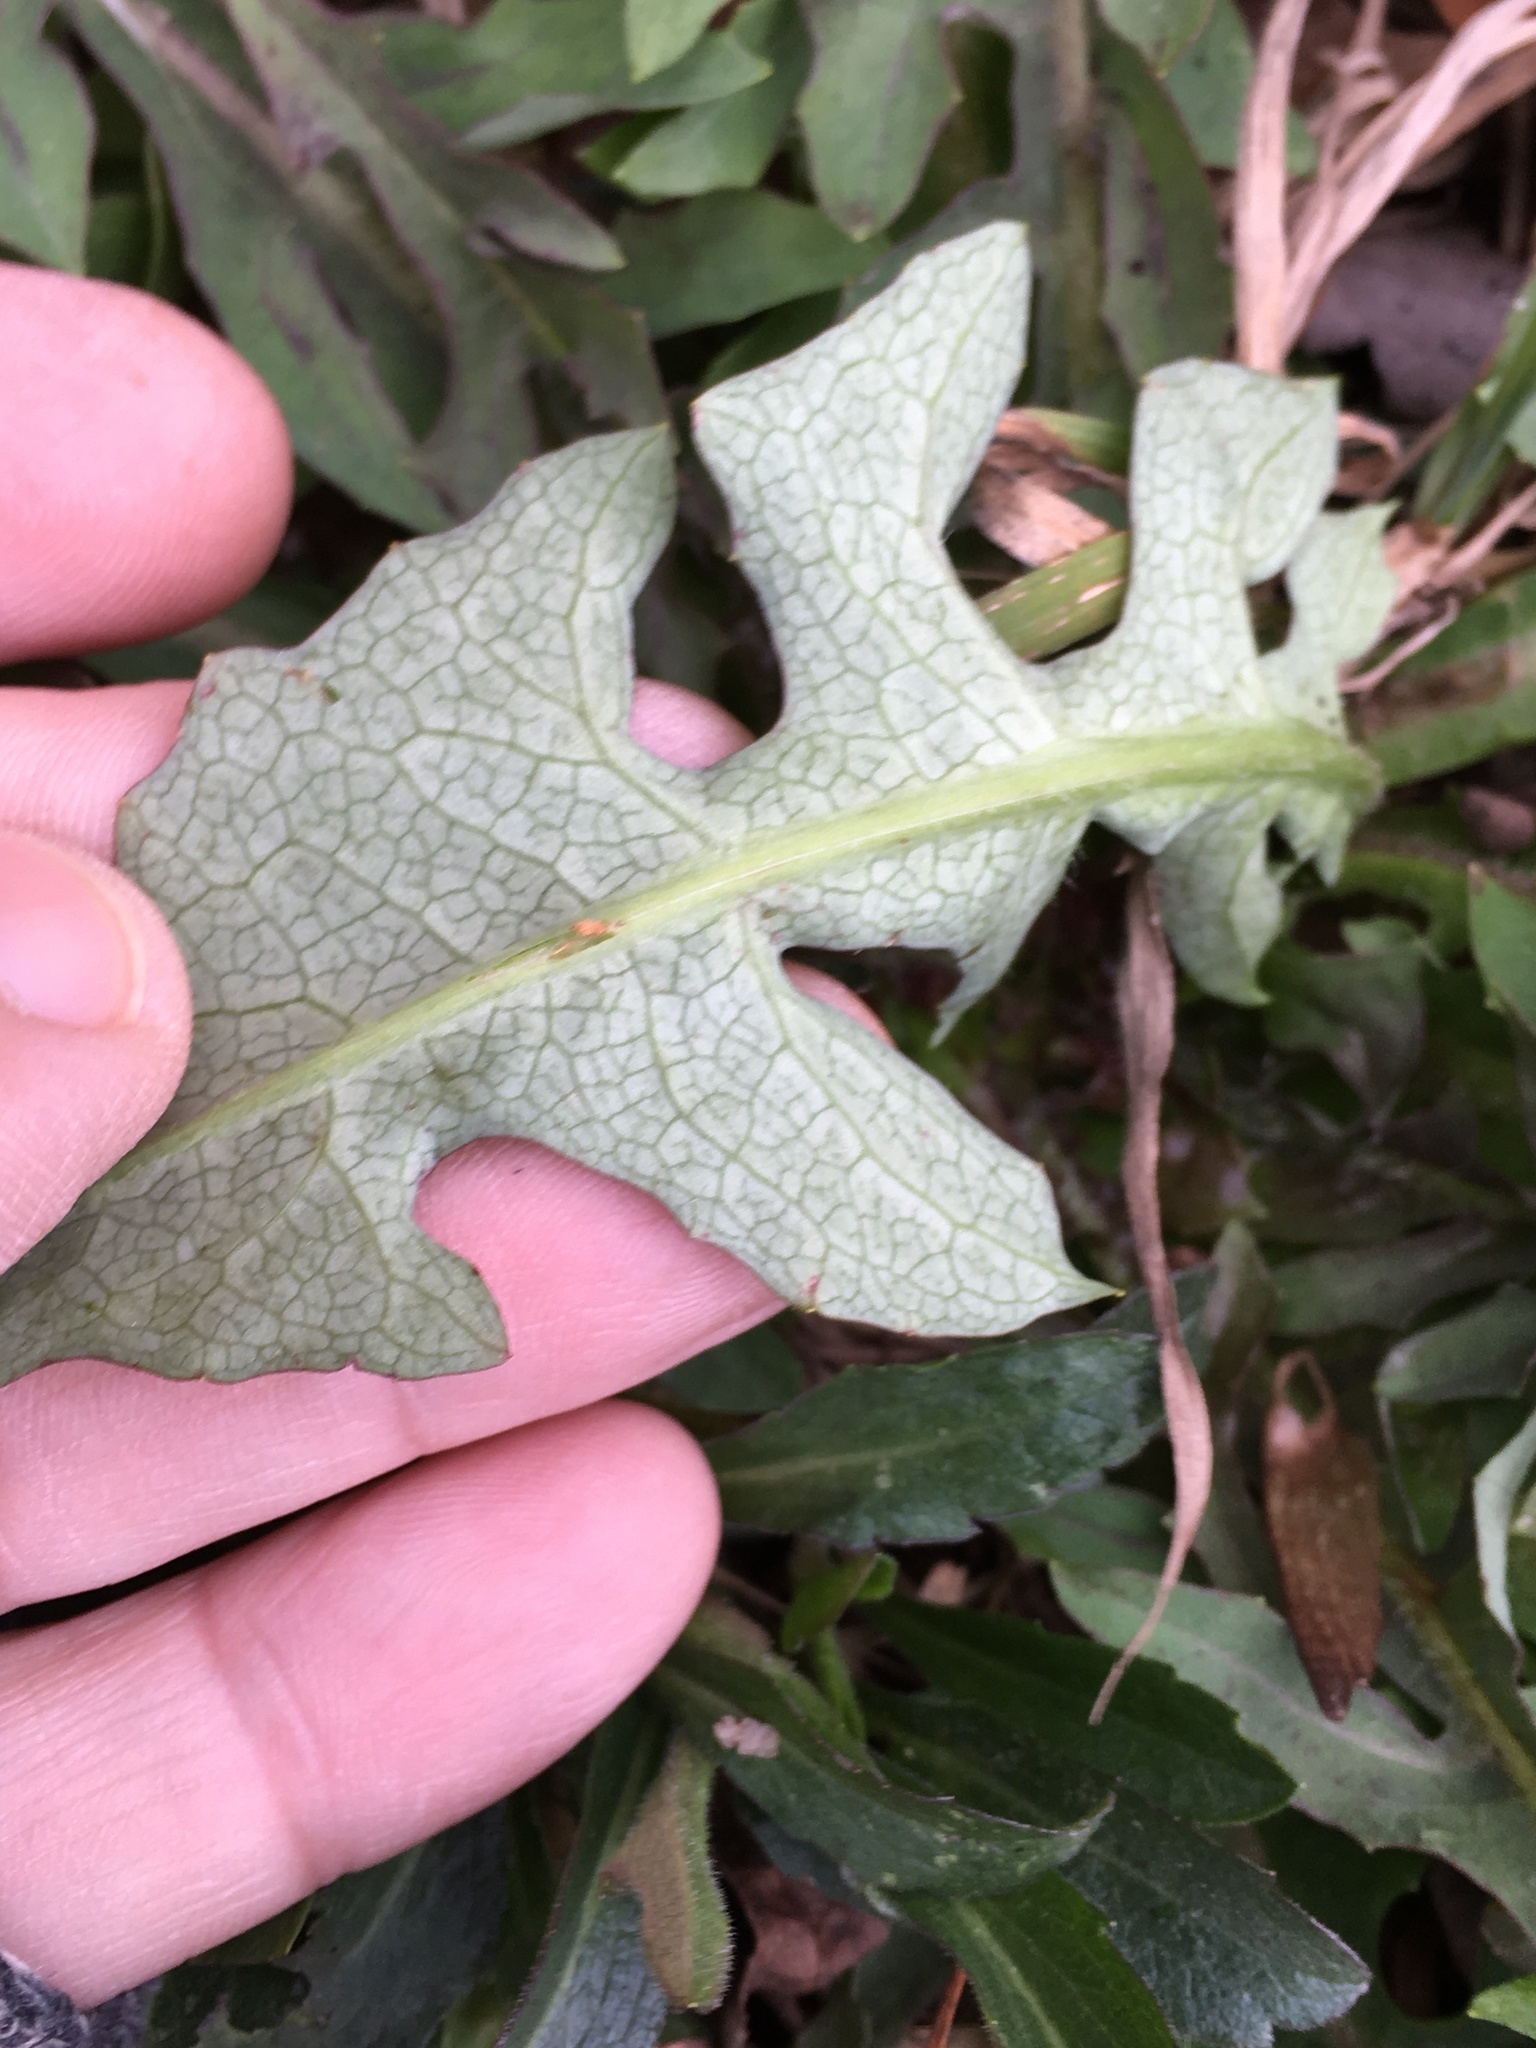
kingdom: Plantae
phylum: Tracheophyta
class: Magnoliopsida
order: Asterales
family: Asteraceae
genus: Taraxacum
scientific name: Taraxacum officinale
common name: Common dandelion
